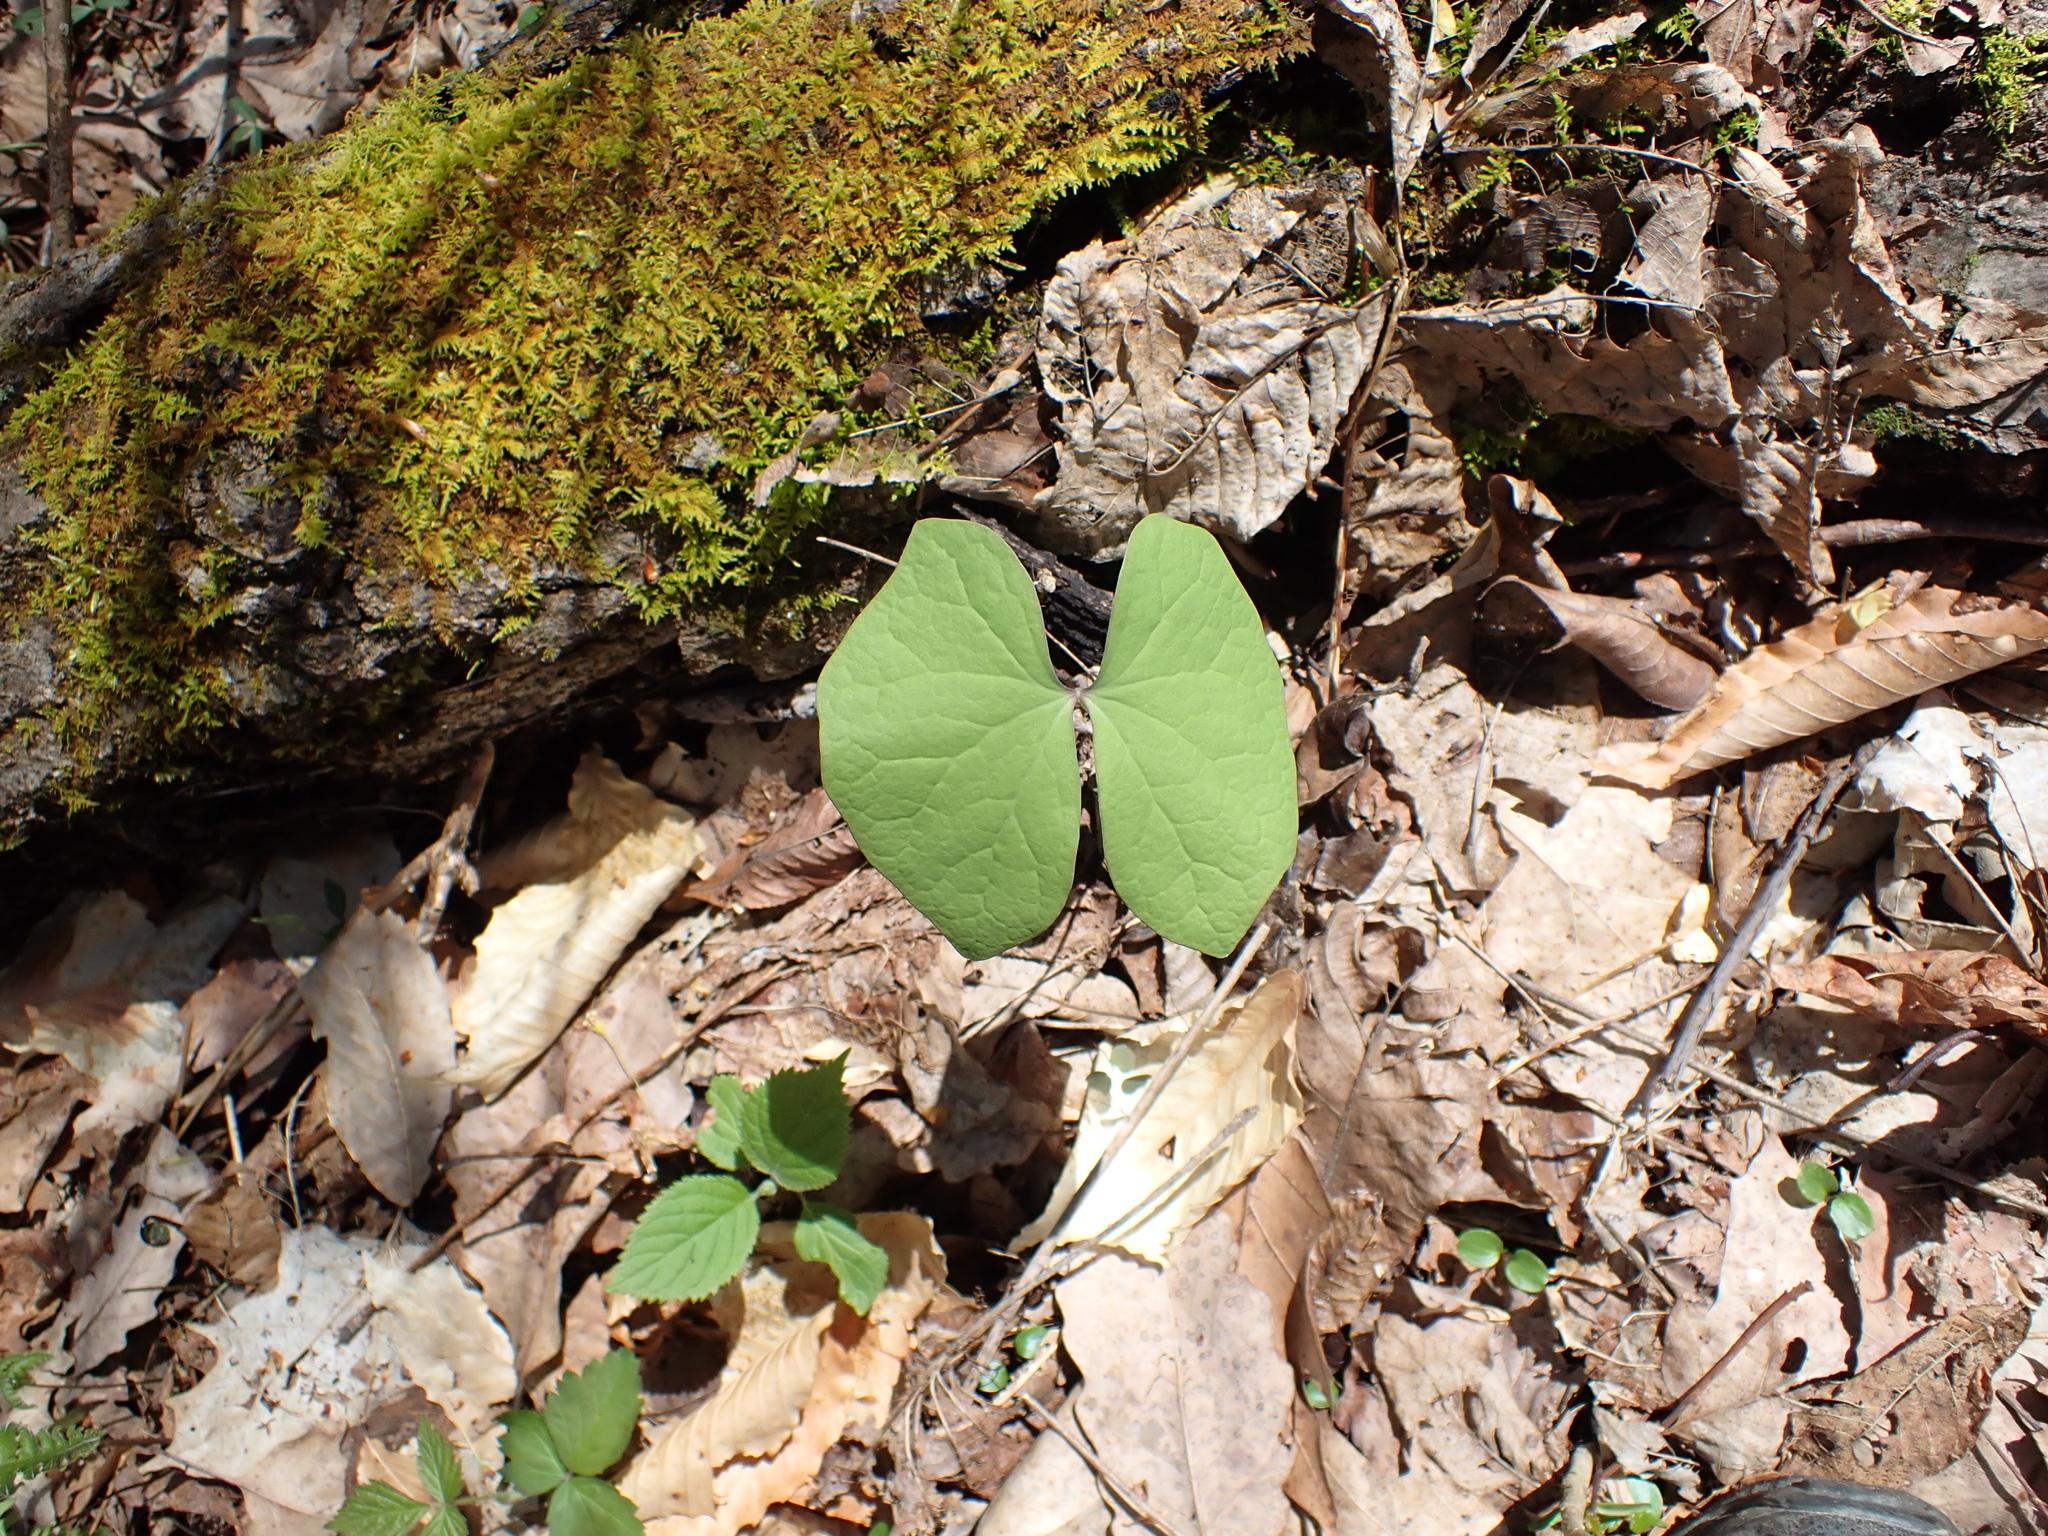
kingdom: Plantae
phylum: Tracheophyta
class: Magnoliopsida
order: Ranunculales
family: Berberidaceae
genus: Jeffersonia
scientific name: Jeffersonia diphylla
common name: Rheumatism-root
